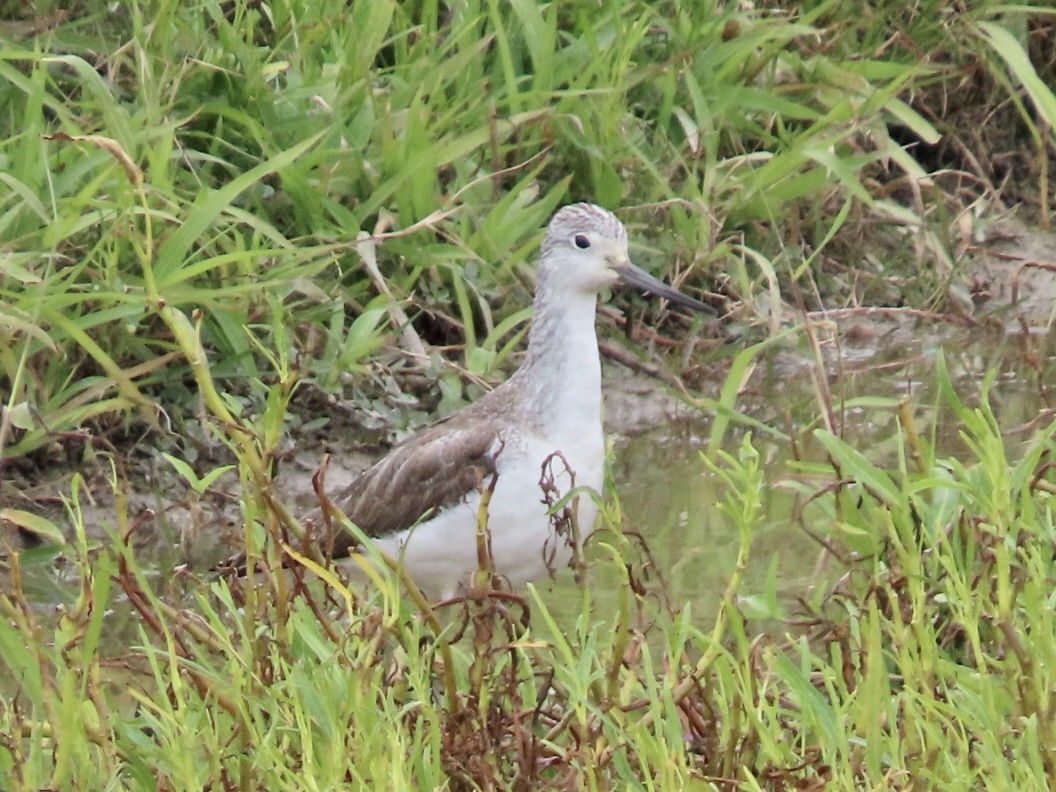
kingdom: Animalia
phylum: Chordata
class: Aves
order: Charadriiformes
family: Scolopacidae
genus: Tringa
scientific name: Tringa nebularia
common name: Common greenshank
